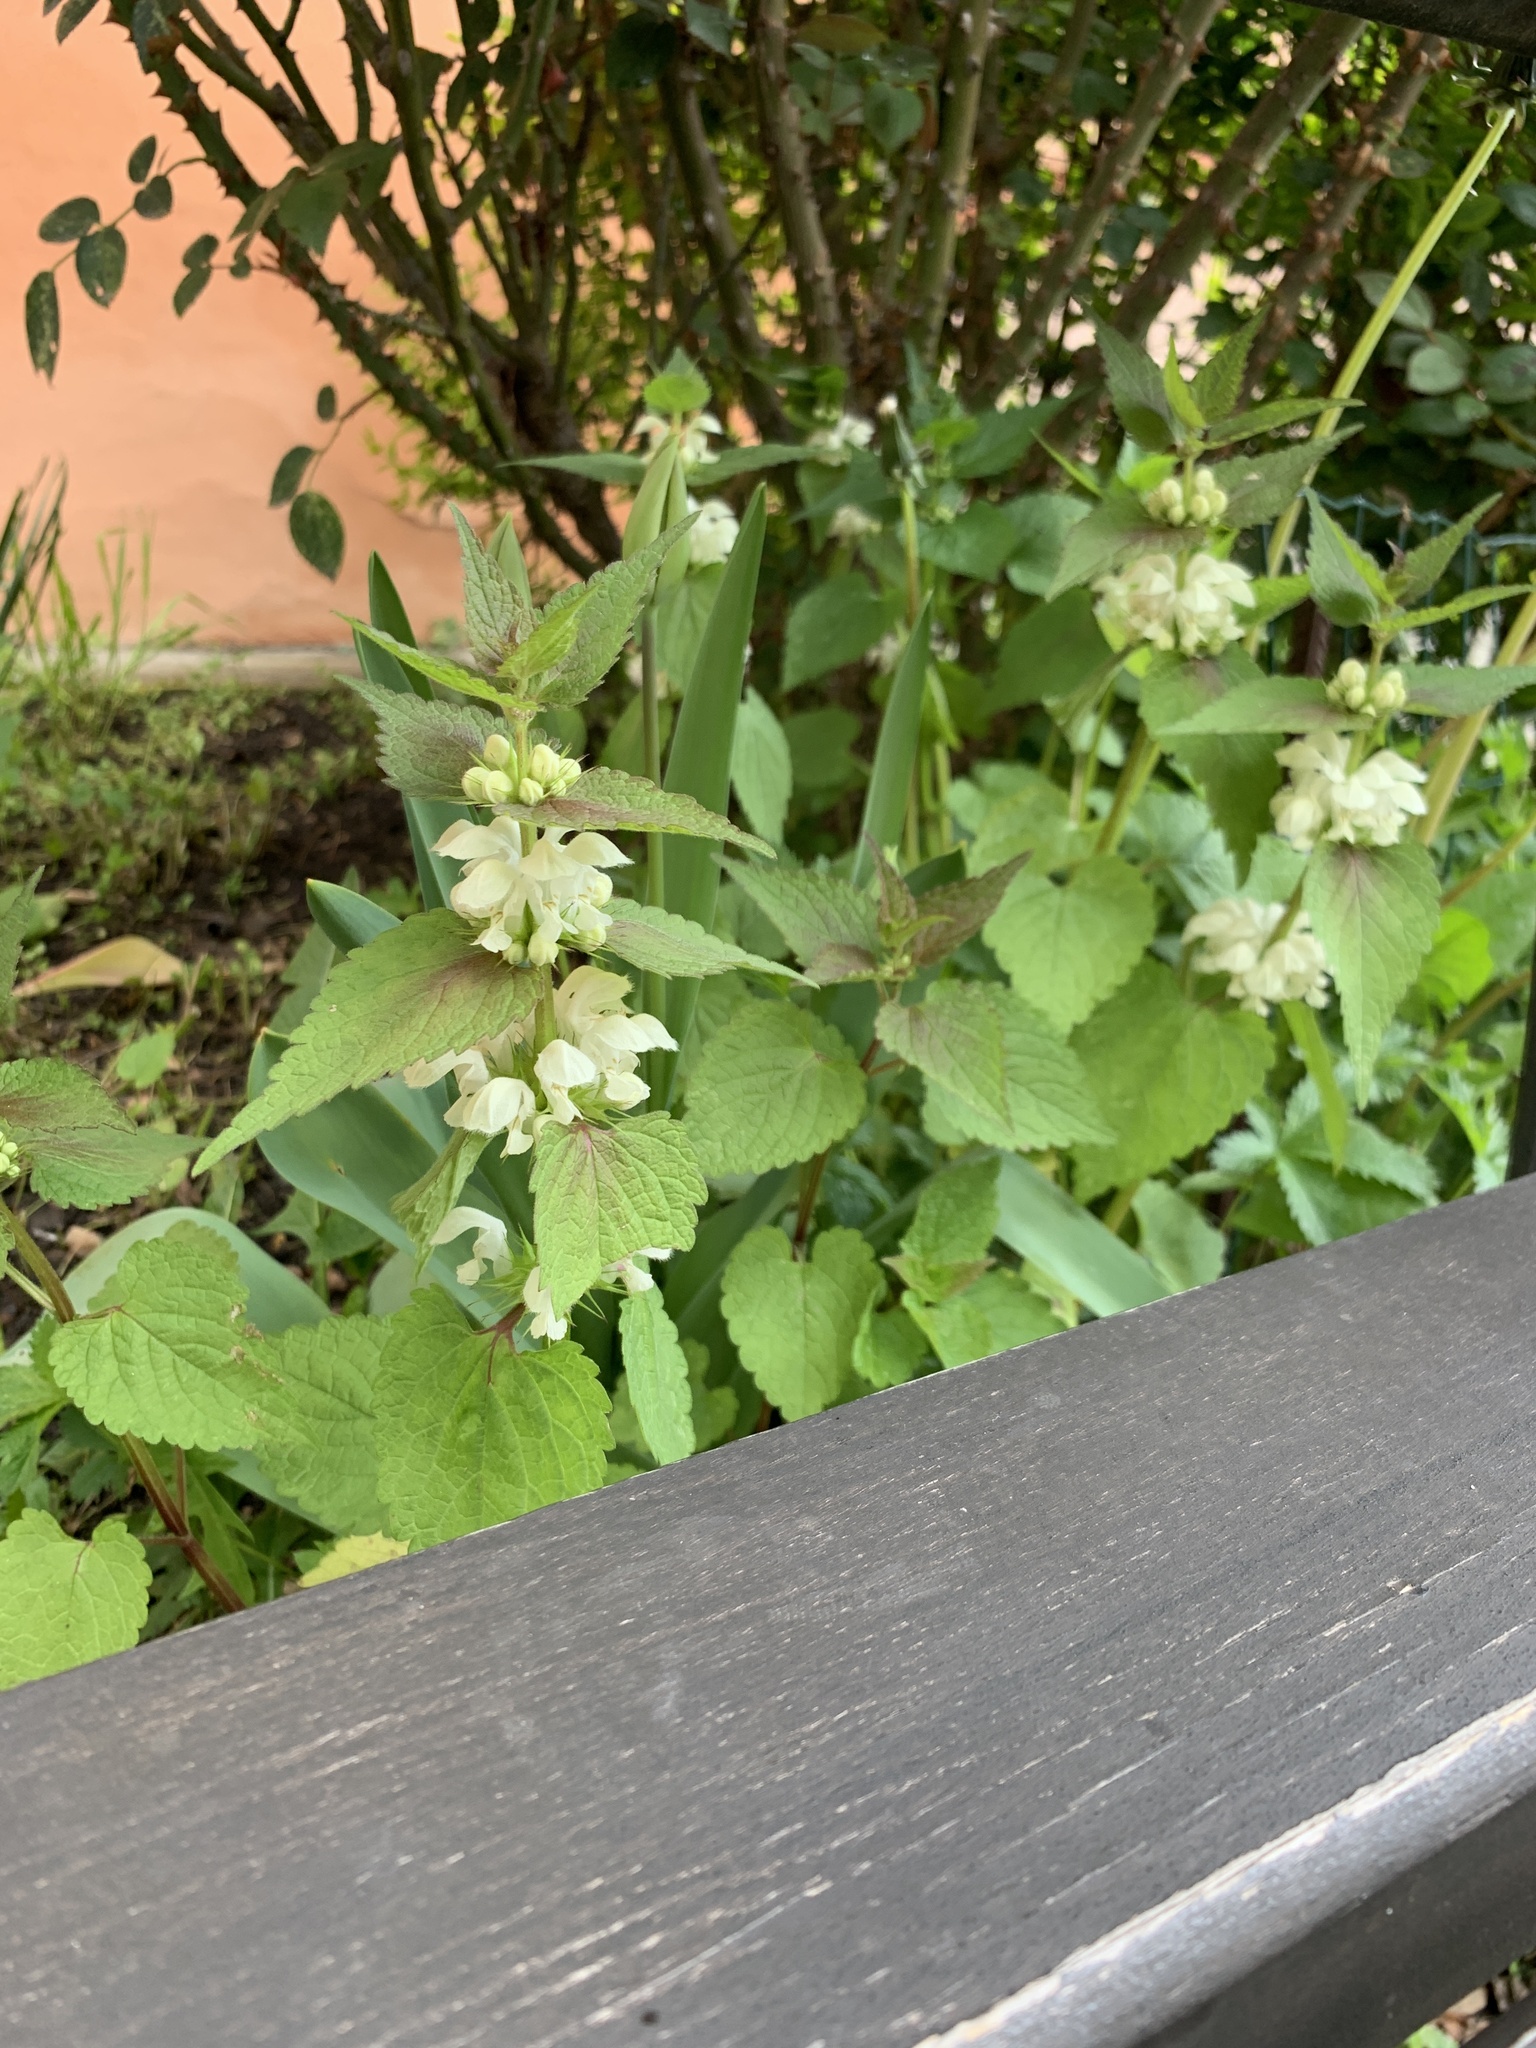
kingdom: Plantae
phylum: Tracheophyta
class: Magnoliopsida
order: Lamiales
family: Lamiaceae
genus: Lamium
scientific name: Lamium album
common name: White dead-nettle
